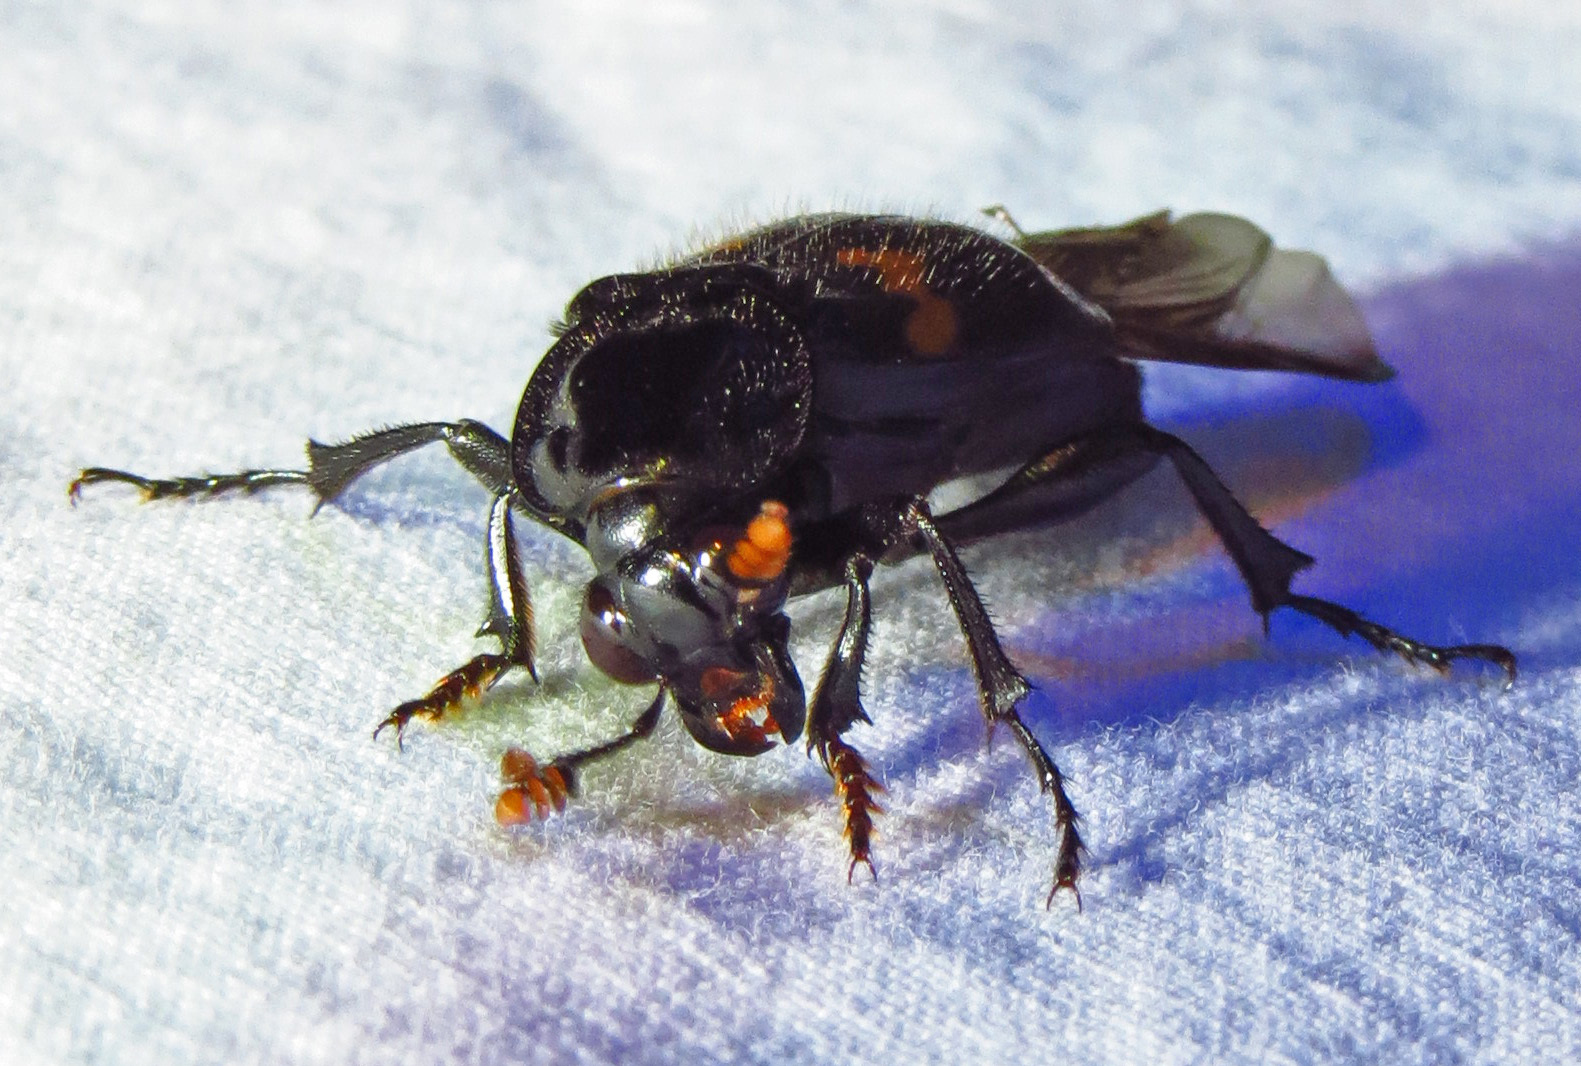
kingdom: Animalia
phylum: Arthropoda
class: Insecta
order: Coleoptera
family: Staphylinidae
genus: Nicrophorus
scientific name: Nicrophorus orbicollis
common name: Roundneck sexton beetle
